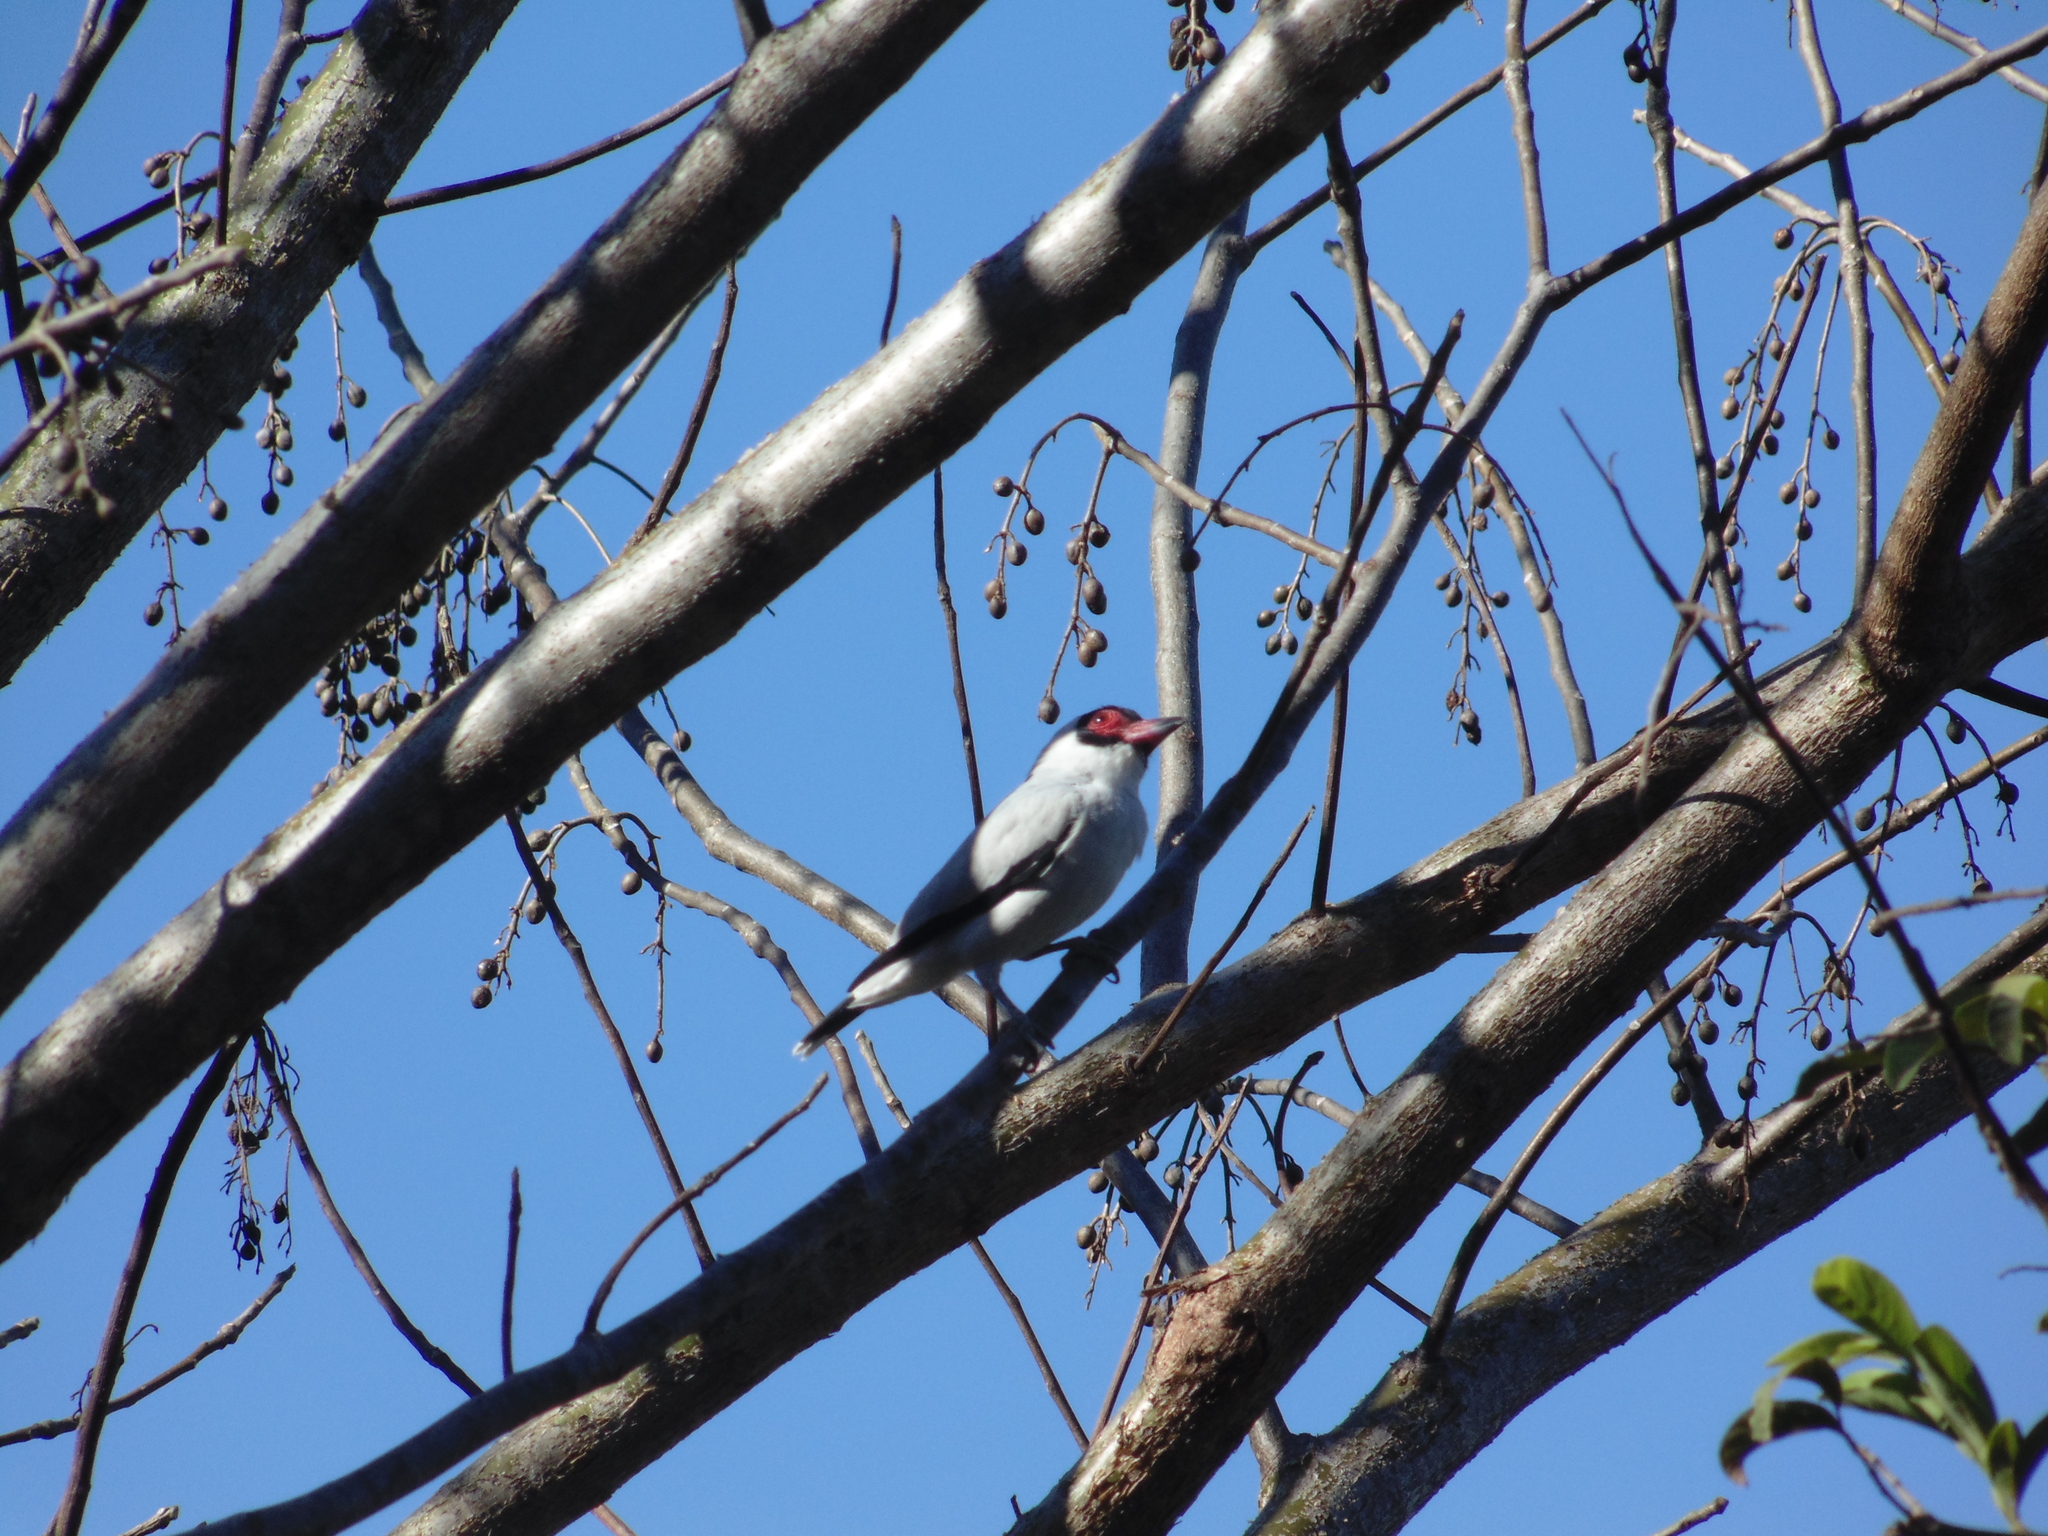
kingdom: Animalia
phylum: Chordata
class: Aves
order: Passeriformes
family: Cotingidae
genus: Tityra
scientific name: Tityra semifasciata
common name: Masked tityra
